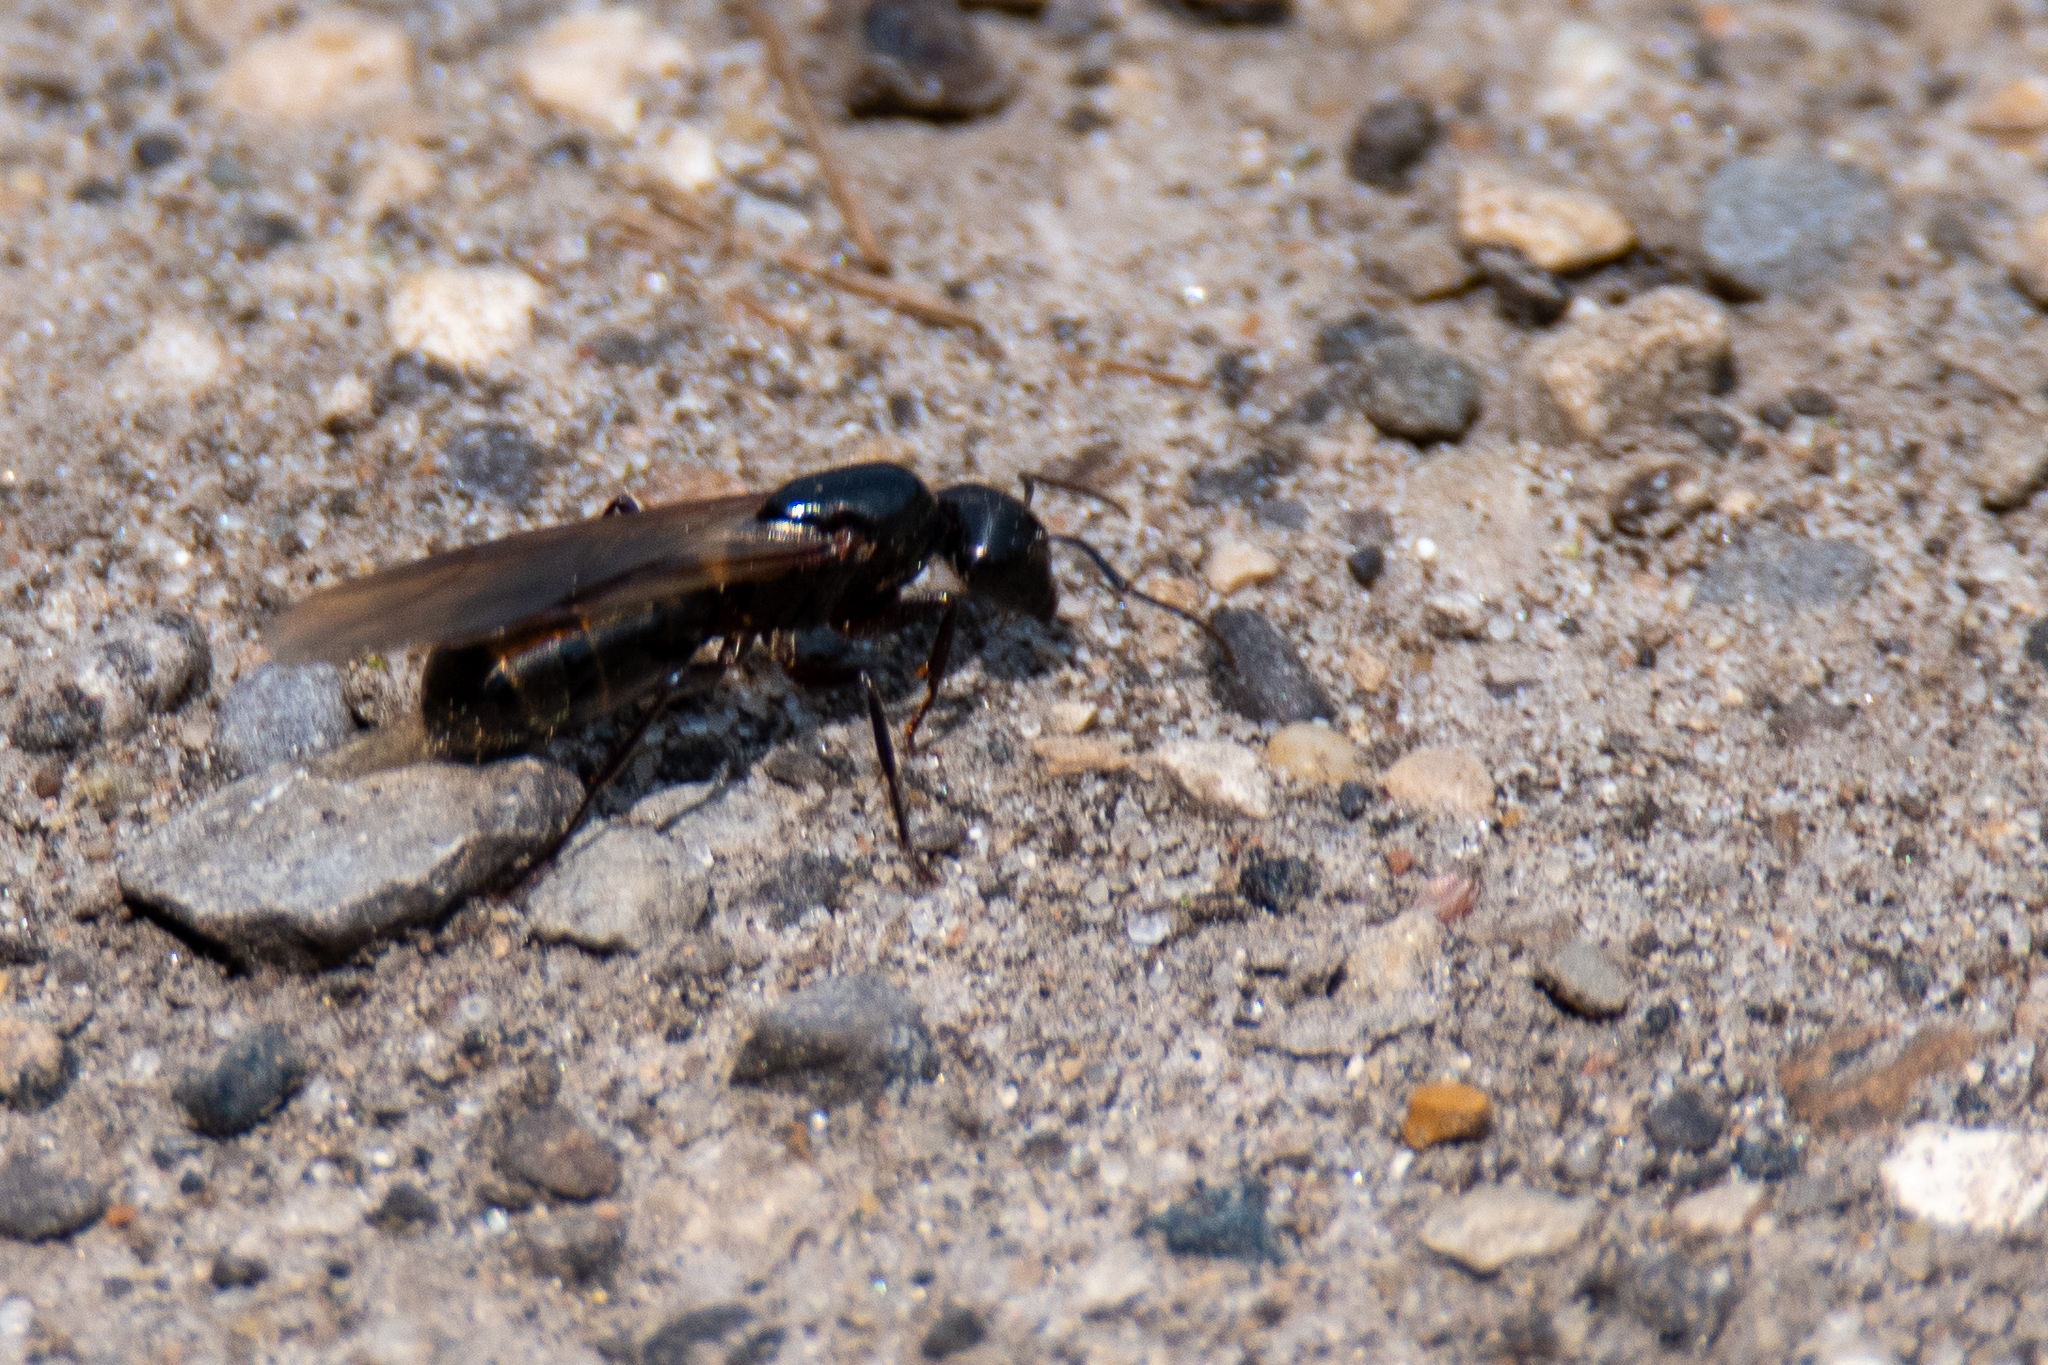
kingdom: Animalia
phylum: Arthropoda
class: Insecta
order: Hymenoptera
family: Formicidae
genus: Camponotus
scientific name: Camponotus pennsylvanicus
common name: Black carpenter ant
